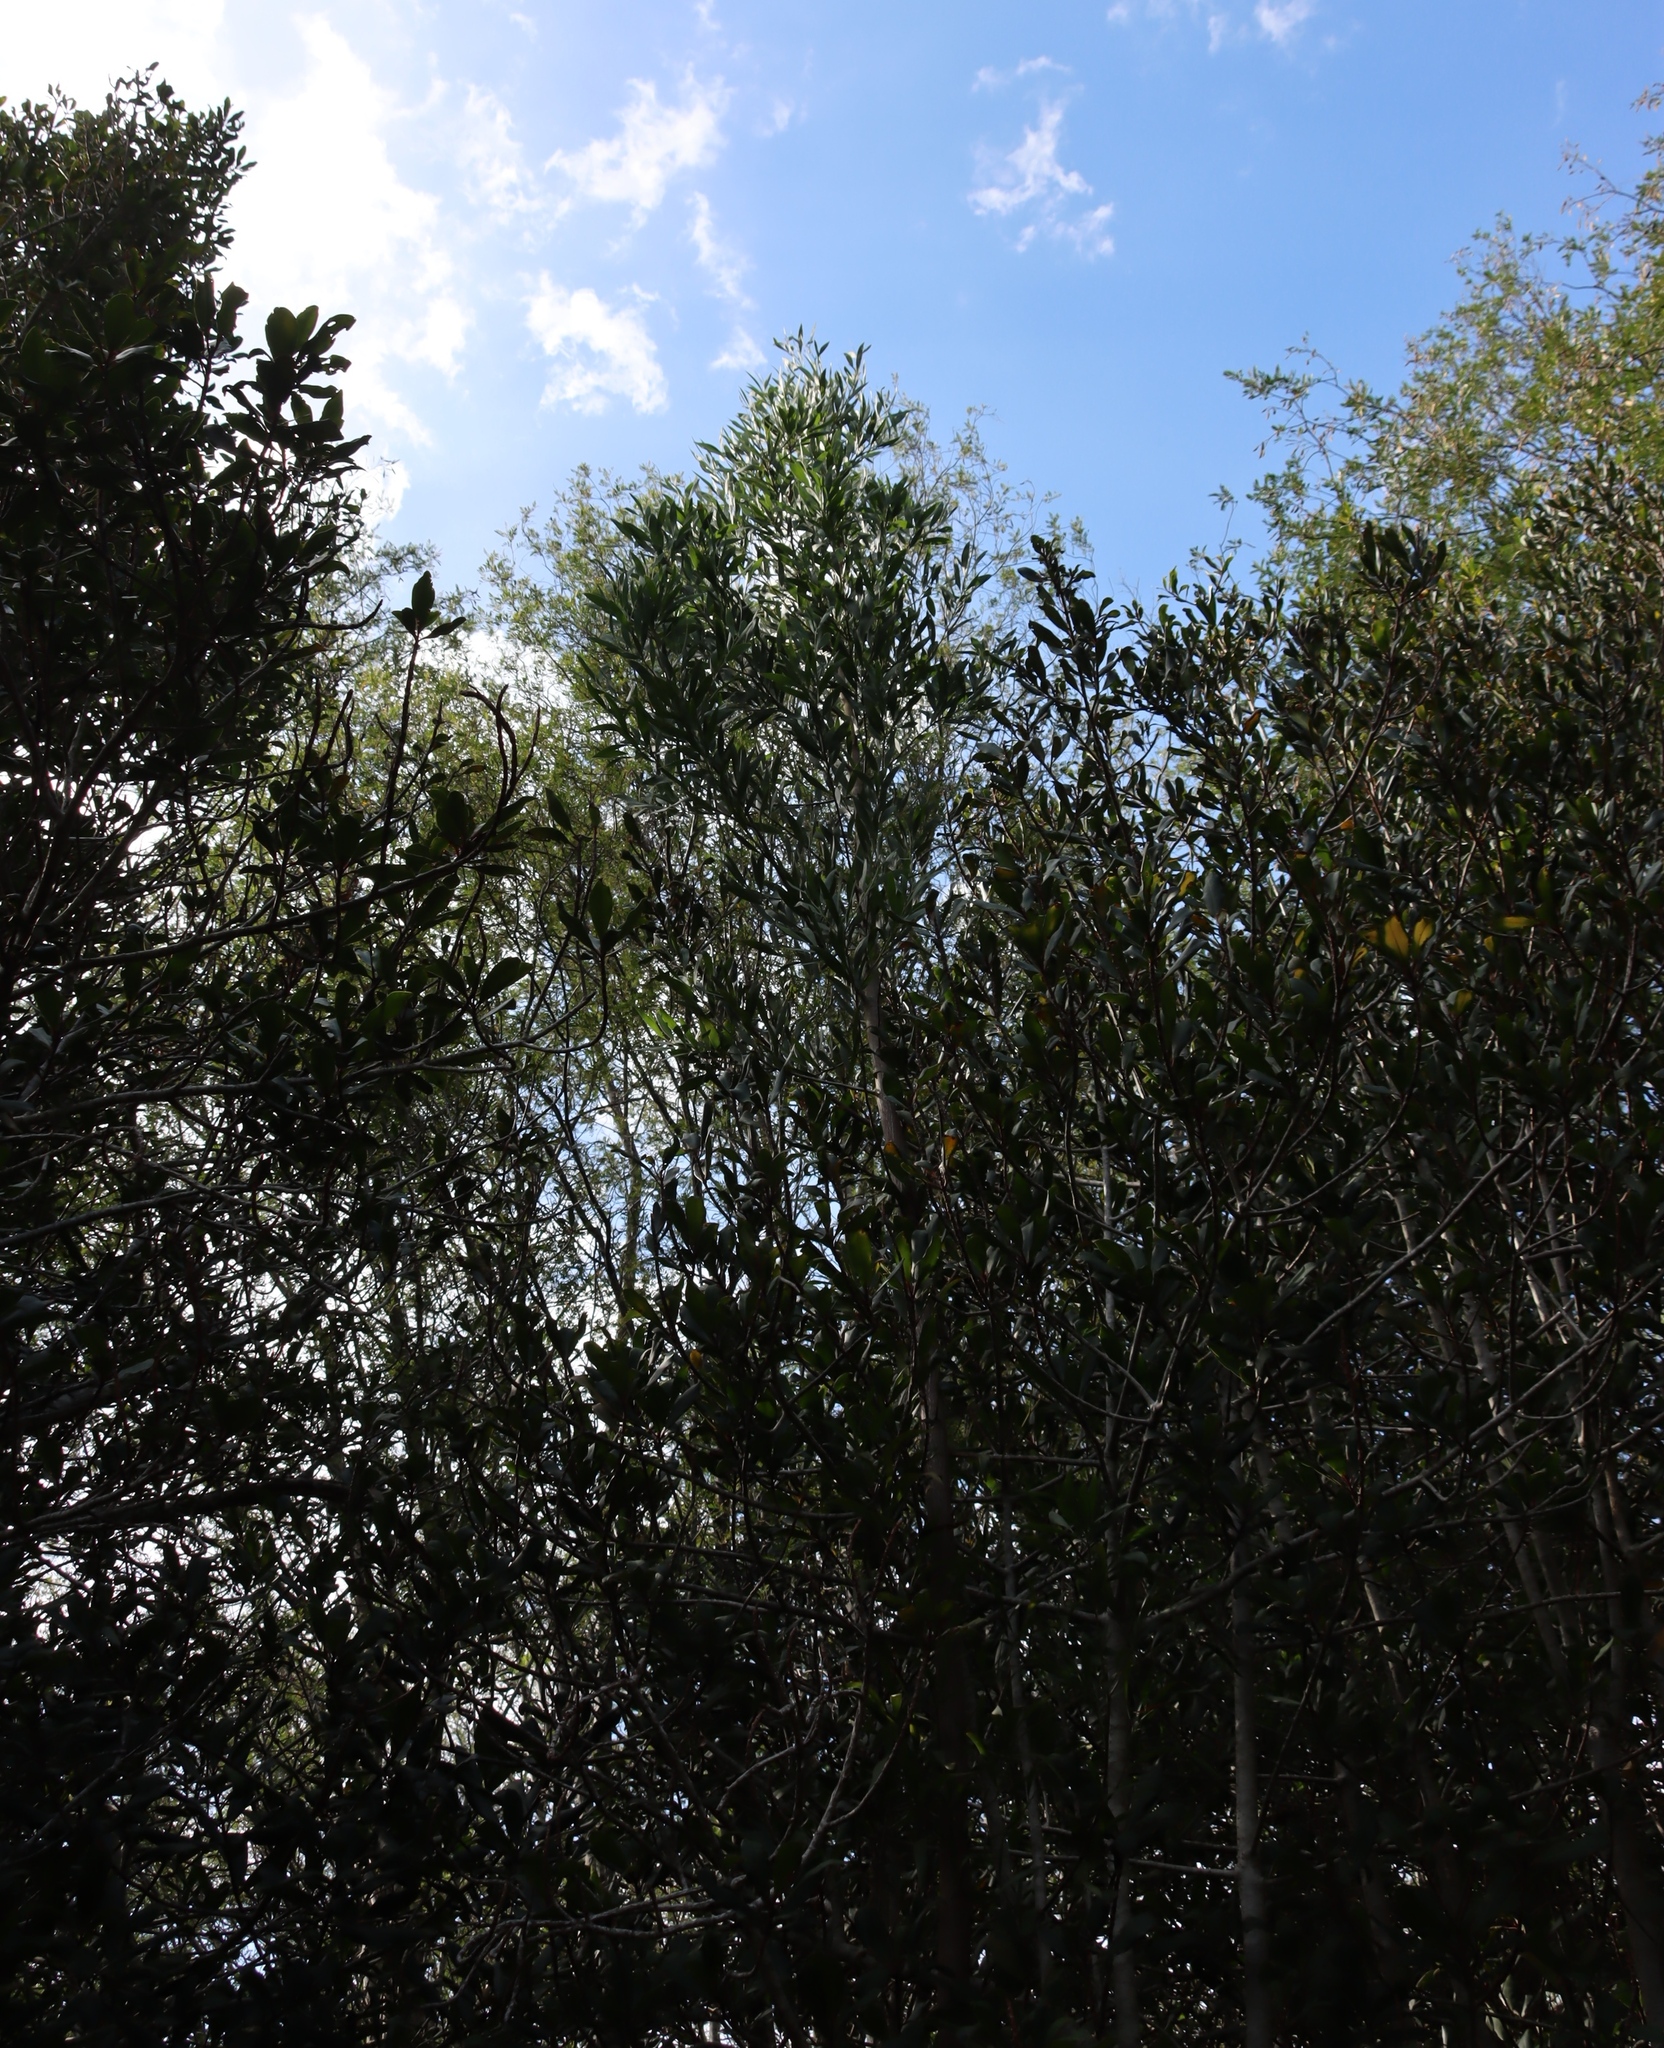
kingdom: Plantae
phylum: Tracheophyta
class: Magnoliopsida
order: Fabales
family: Fabaceae
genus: Acacia
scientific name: Acacia melanoxylon
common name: Blackwood
